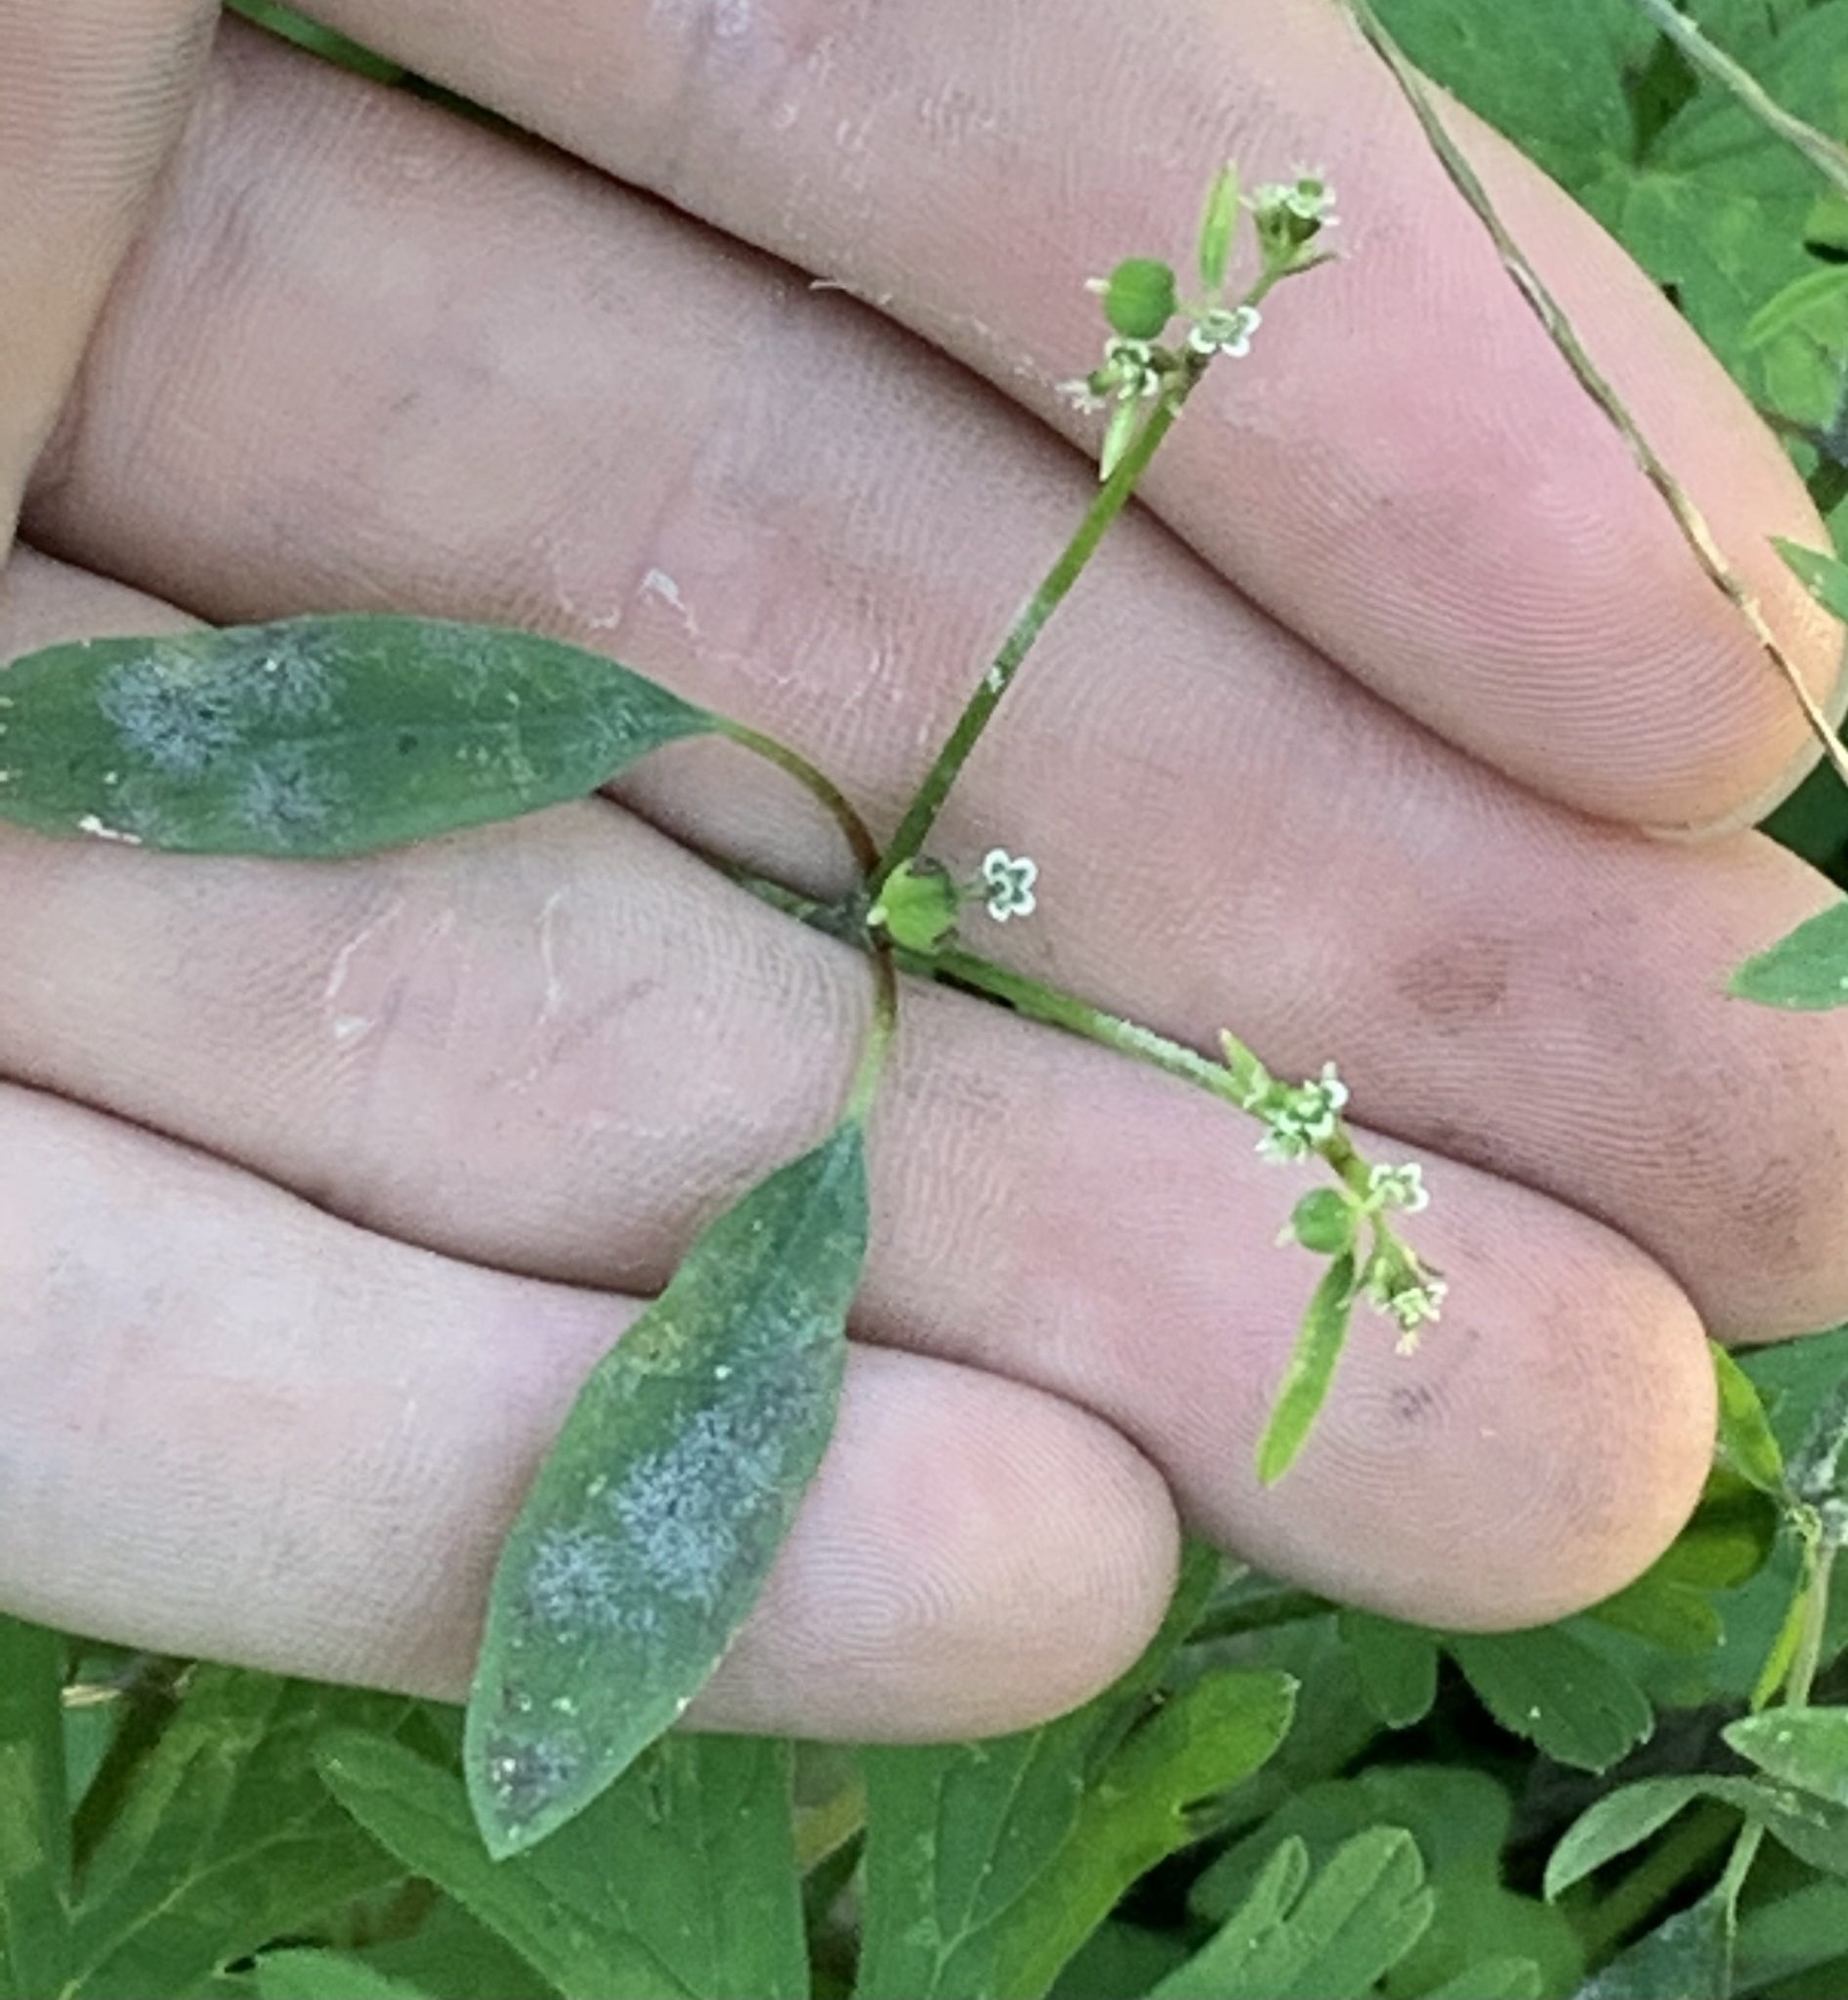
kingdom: Plantae
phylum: Tracheophyta
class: Magnoliopsida
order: Malpighiales
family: Euphorbiaceae
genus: Euphorbia
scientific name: Euphorbia graminea
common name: Grassleaf spurge
